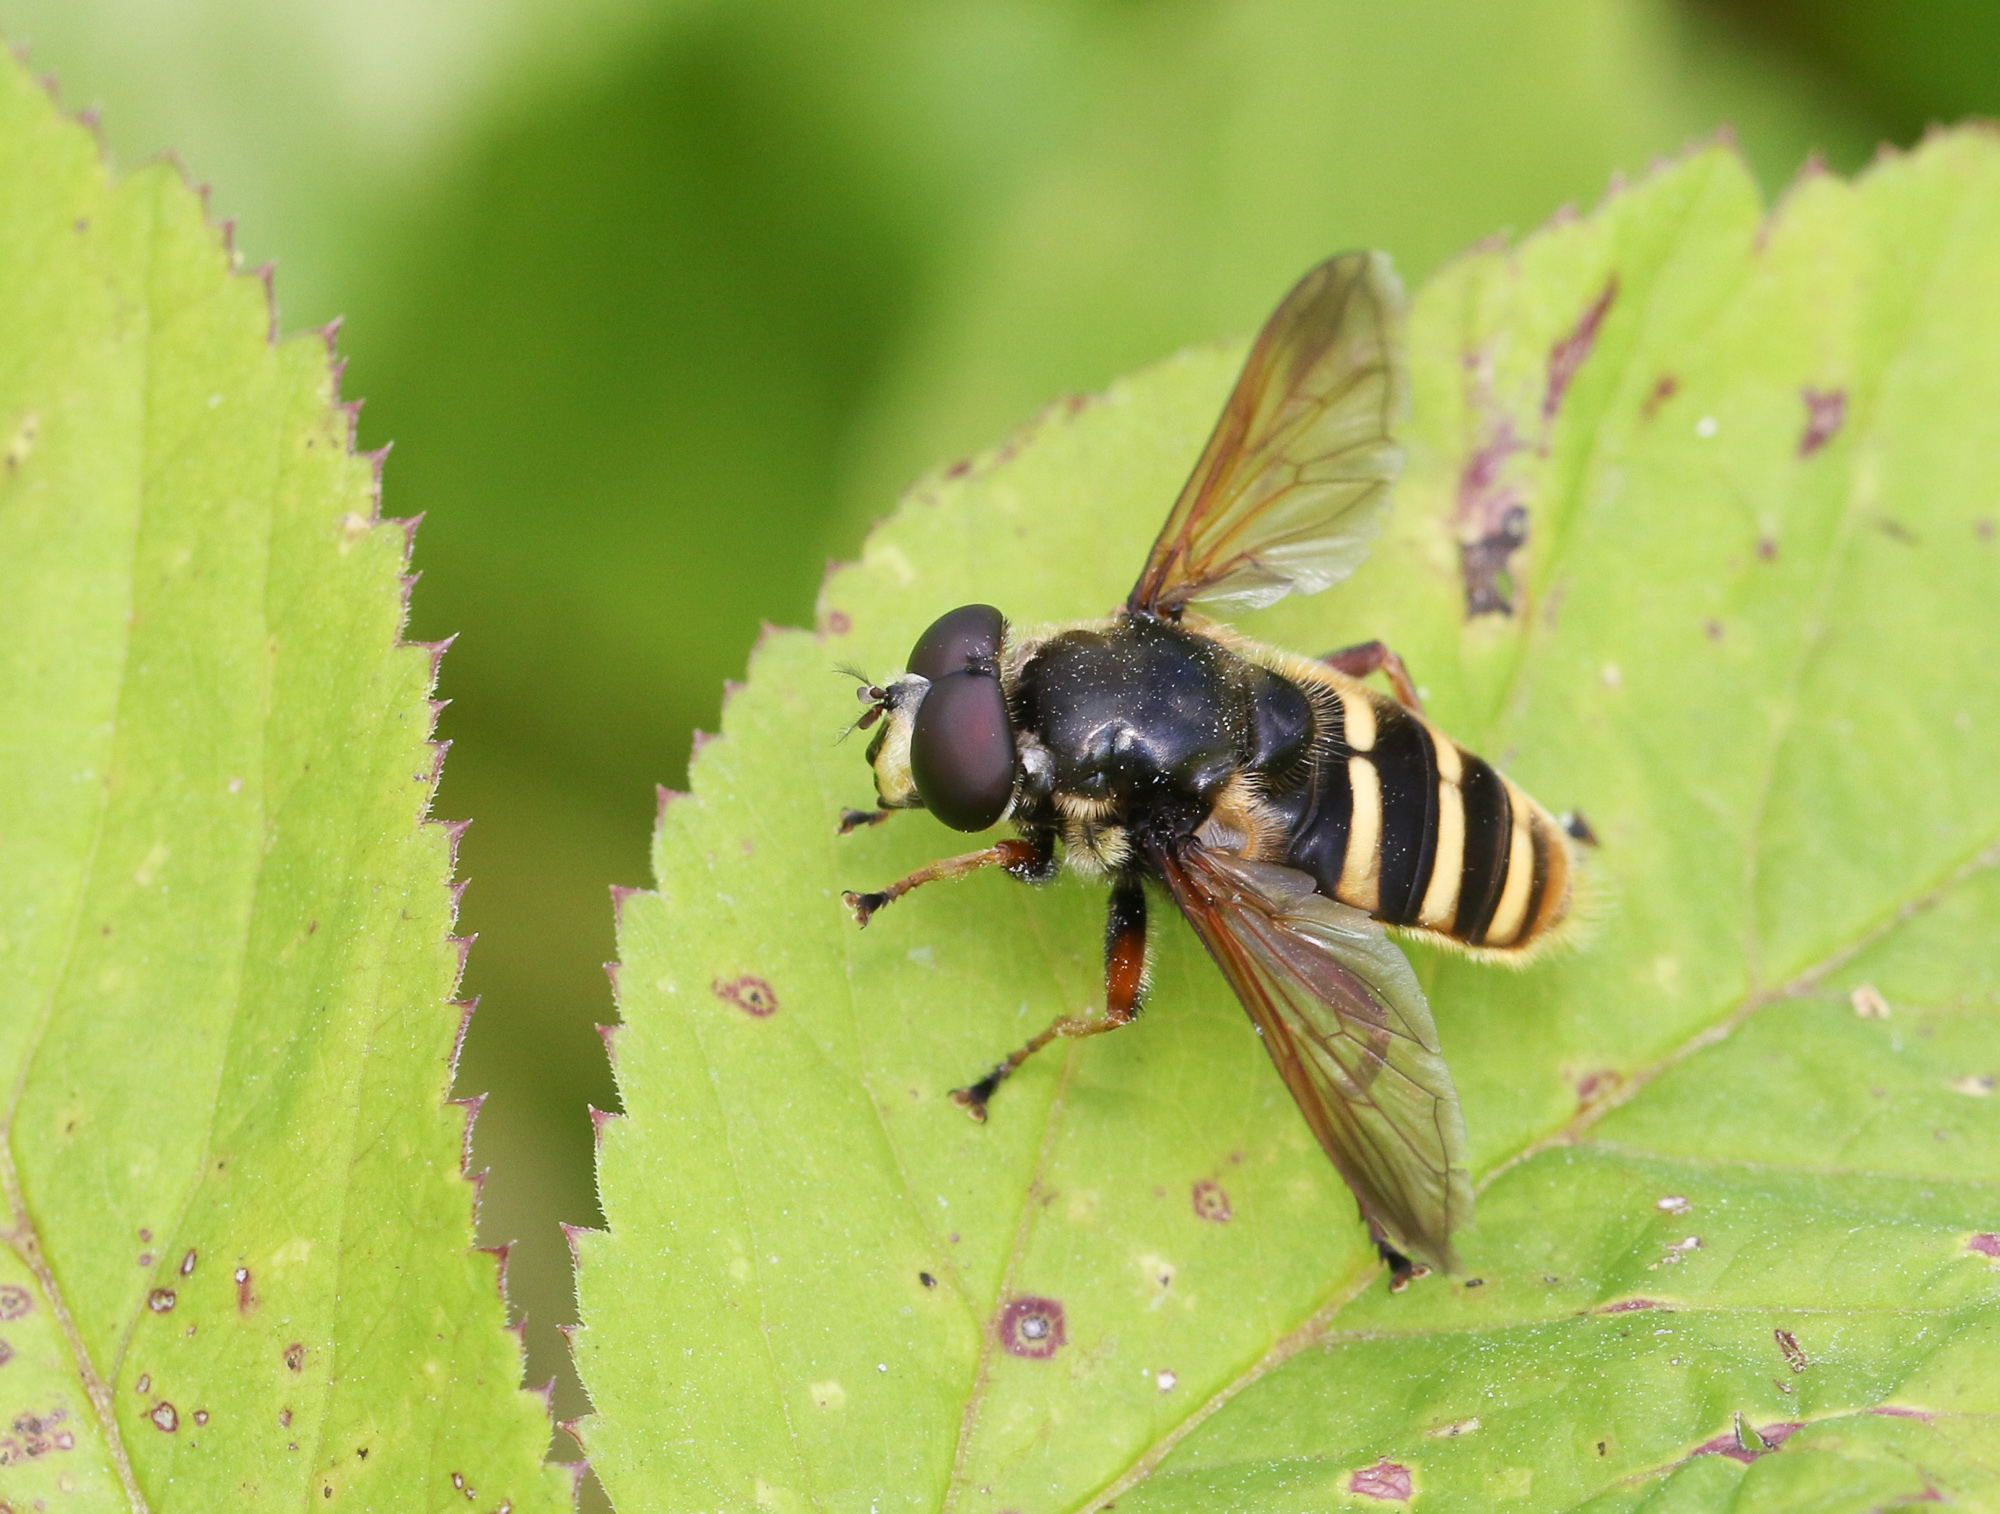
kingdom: Animalia
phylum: Arthropoda
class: Insecta
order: Diptera
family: Syrphidae
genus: Sericomyia
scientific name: Sericomyia silentis
